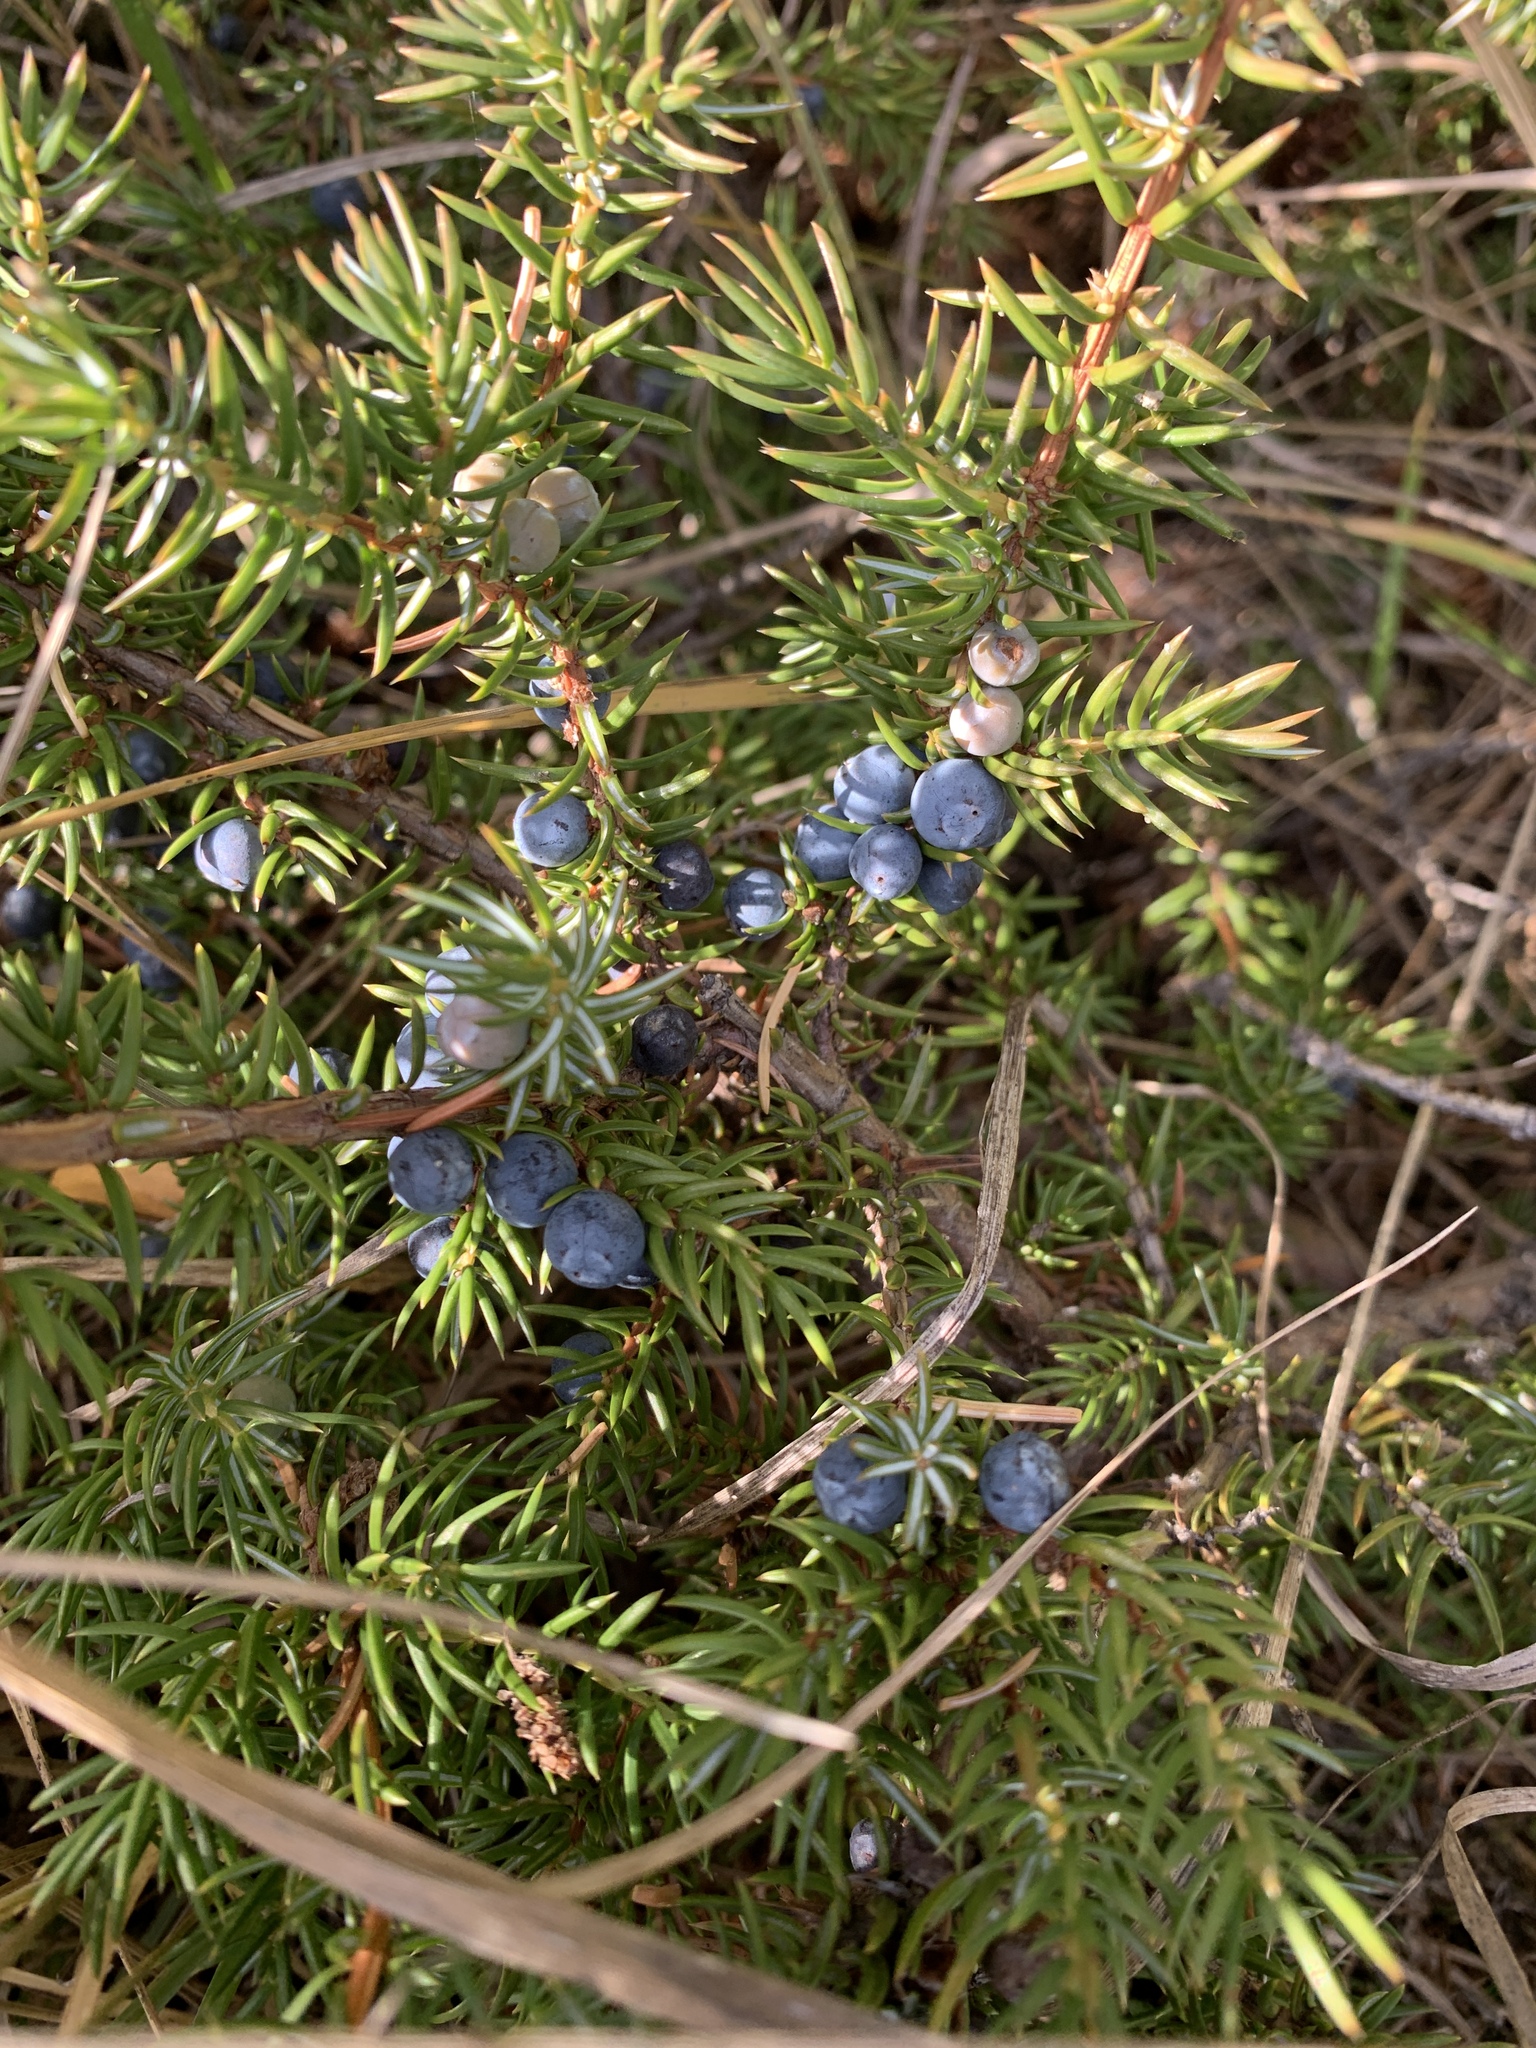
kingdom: Plantae
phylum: Tracheophyta
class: Pinopsida
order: Pinales
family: Cupressaceae
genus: Juniperus
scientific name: Juniperus communis
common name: Common juniper
